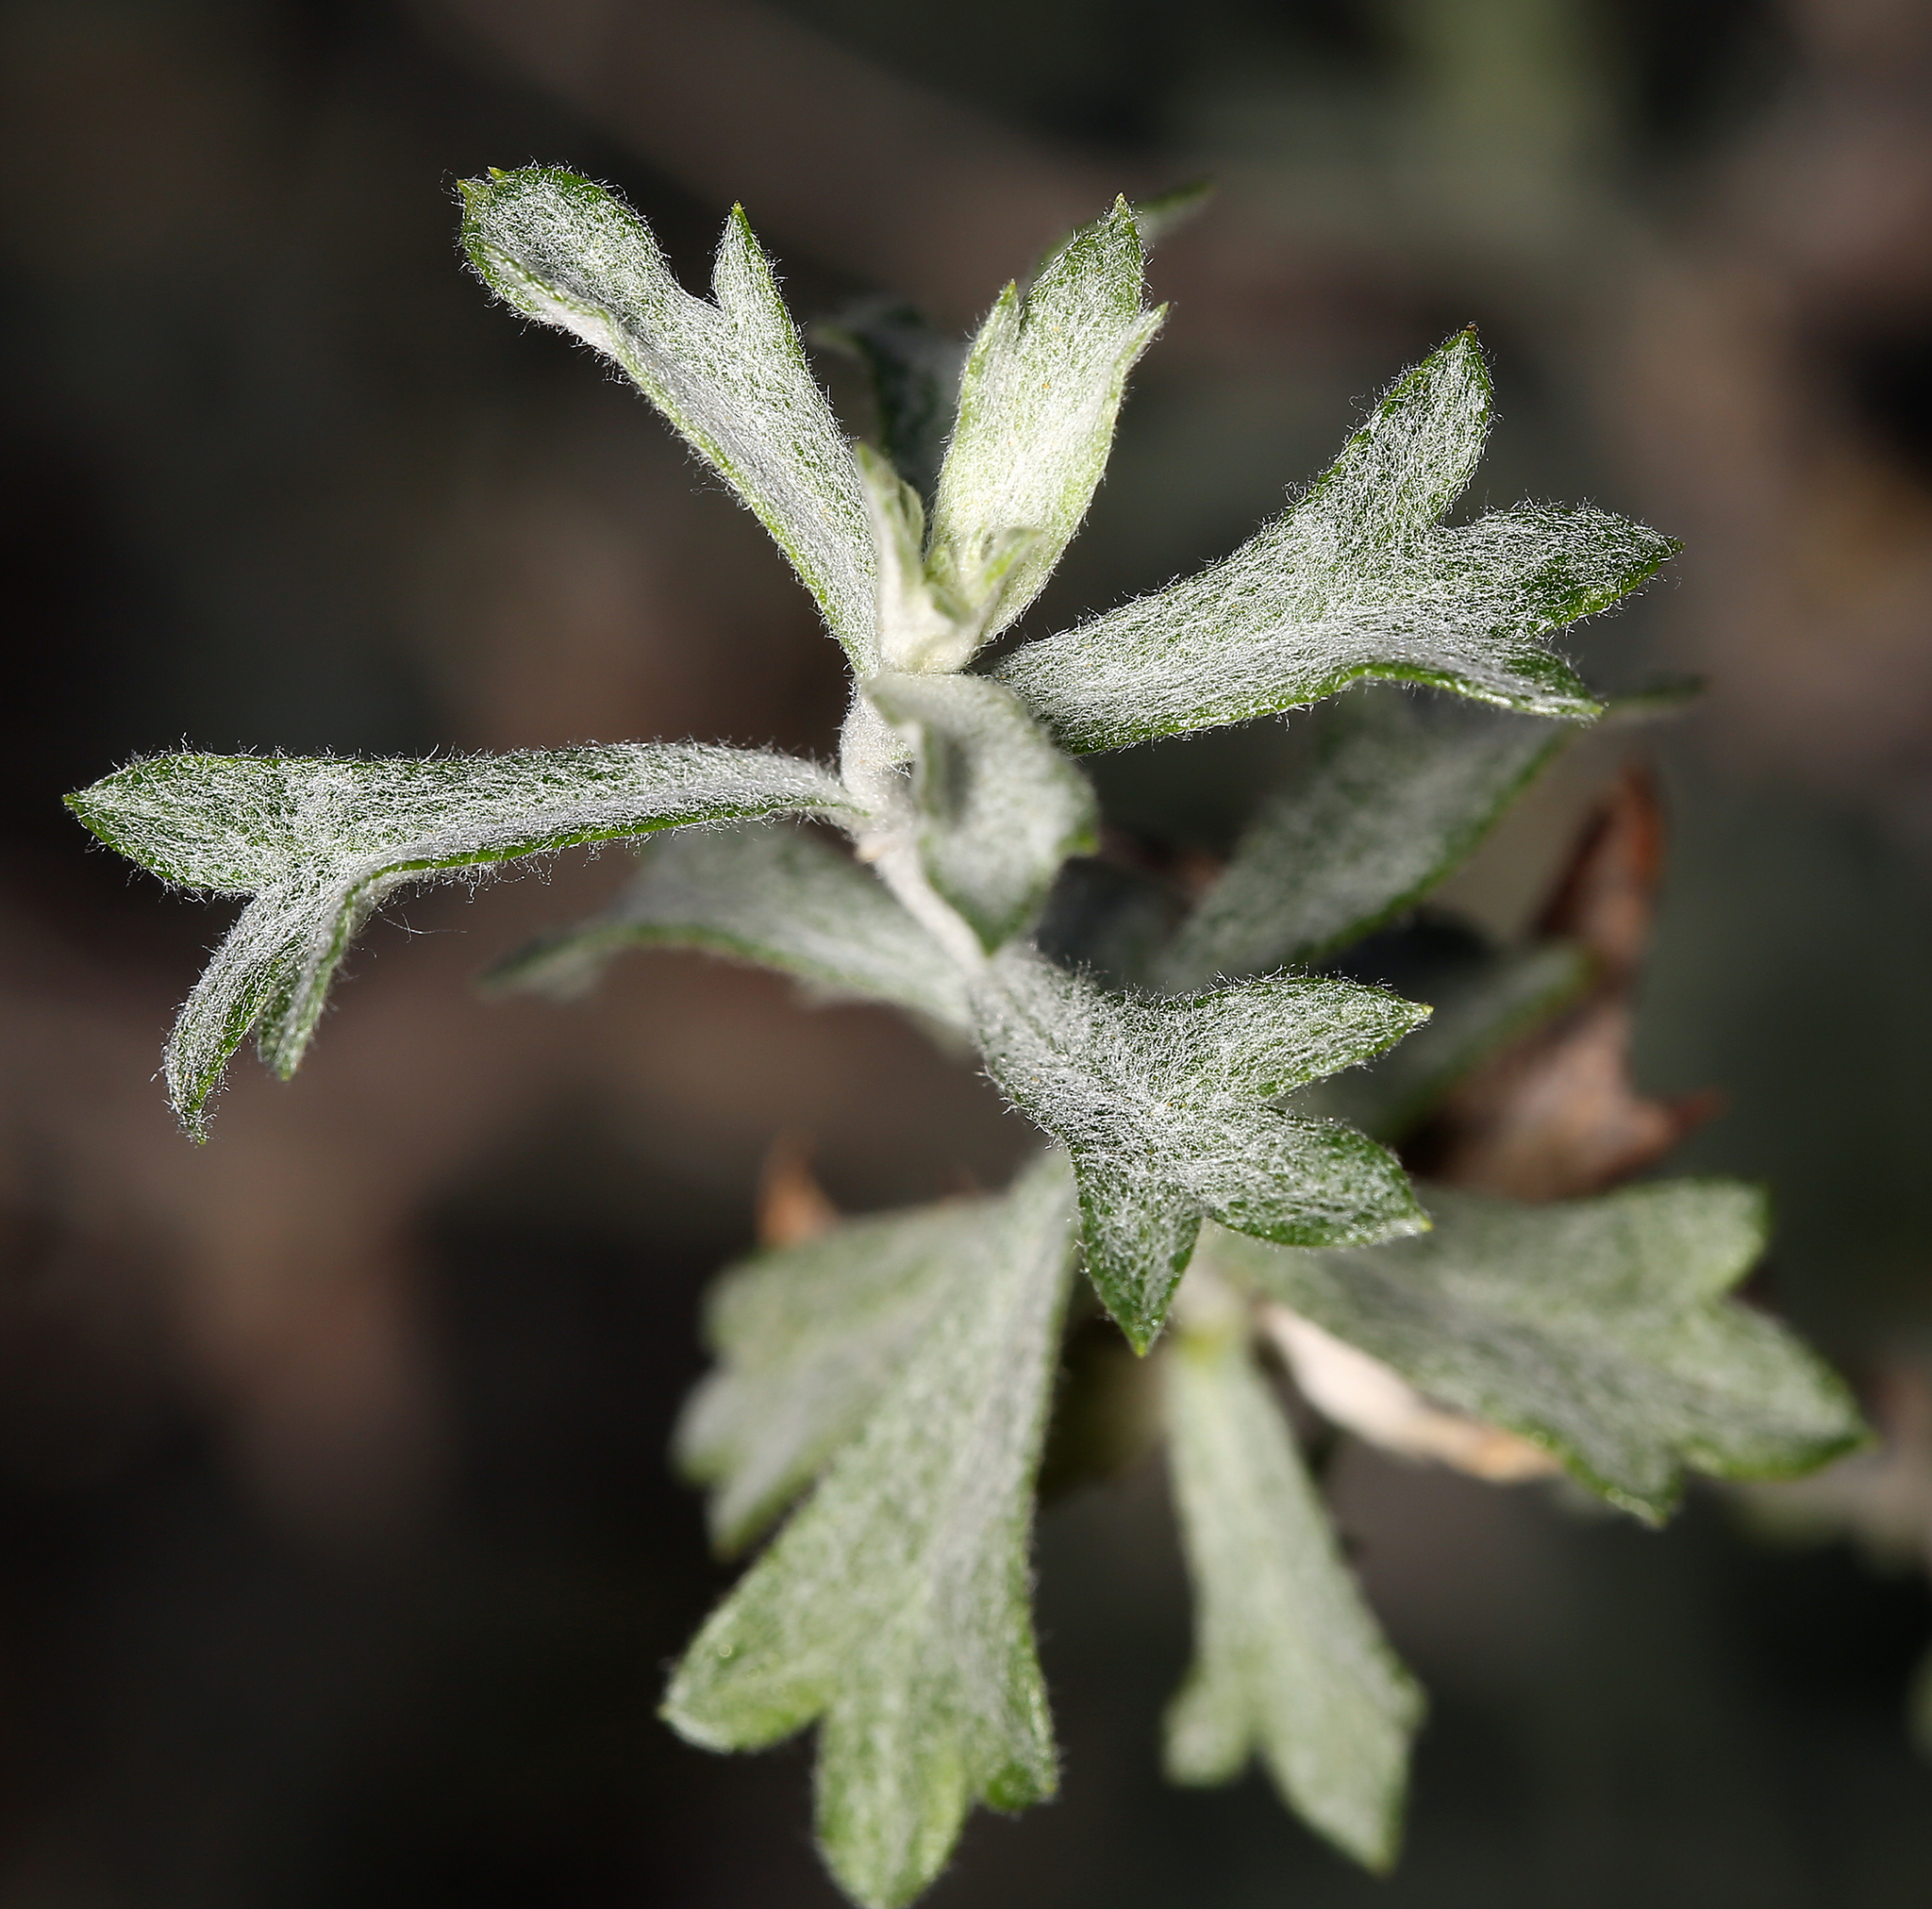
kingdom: Plantae
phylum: Tracheophyta
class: Magnoliopsida
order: Asterales
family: Asteraceae
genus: Artemisia
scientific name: Artemisia ludoviciana
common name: Western mugwort
